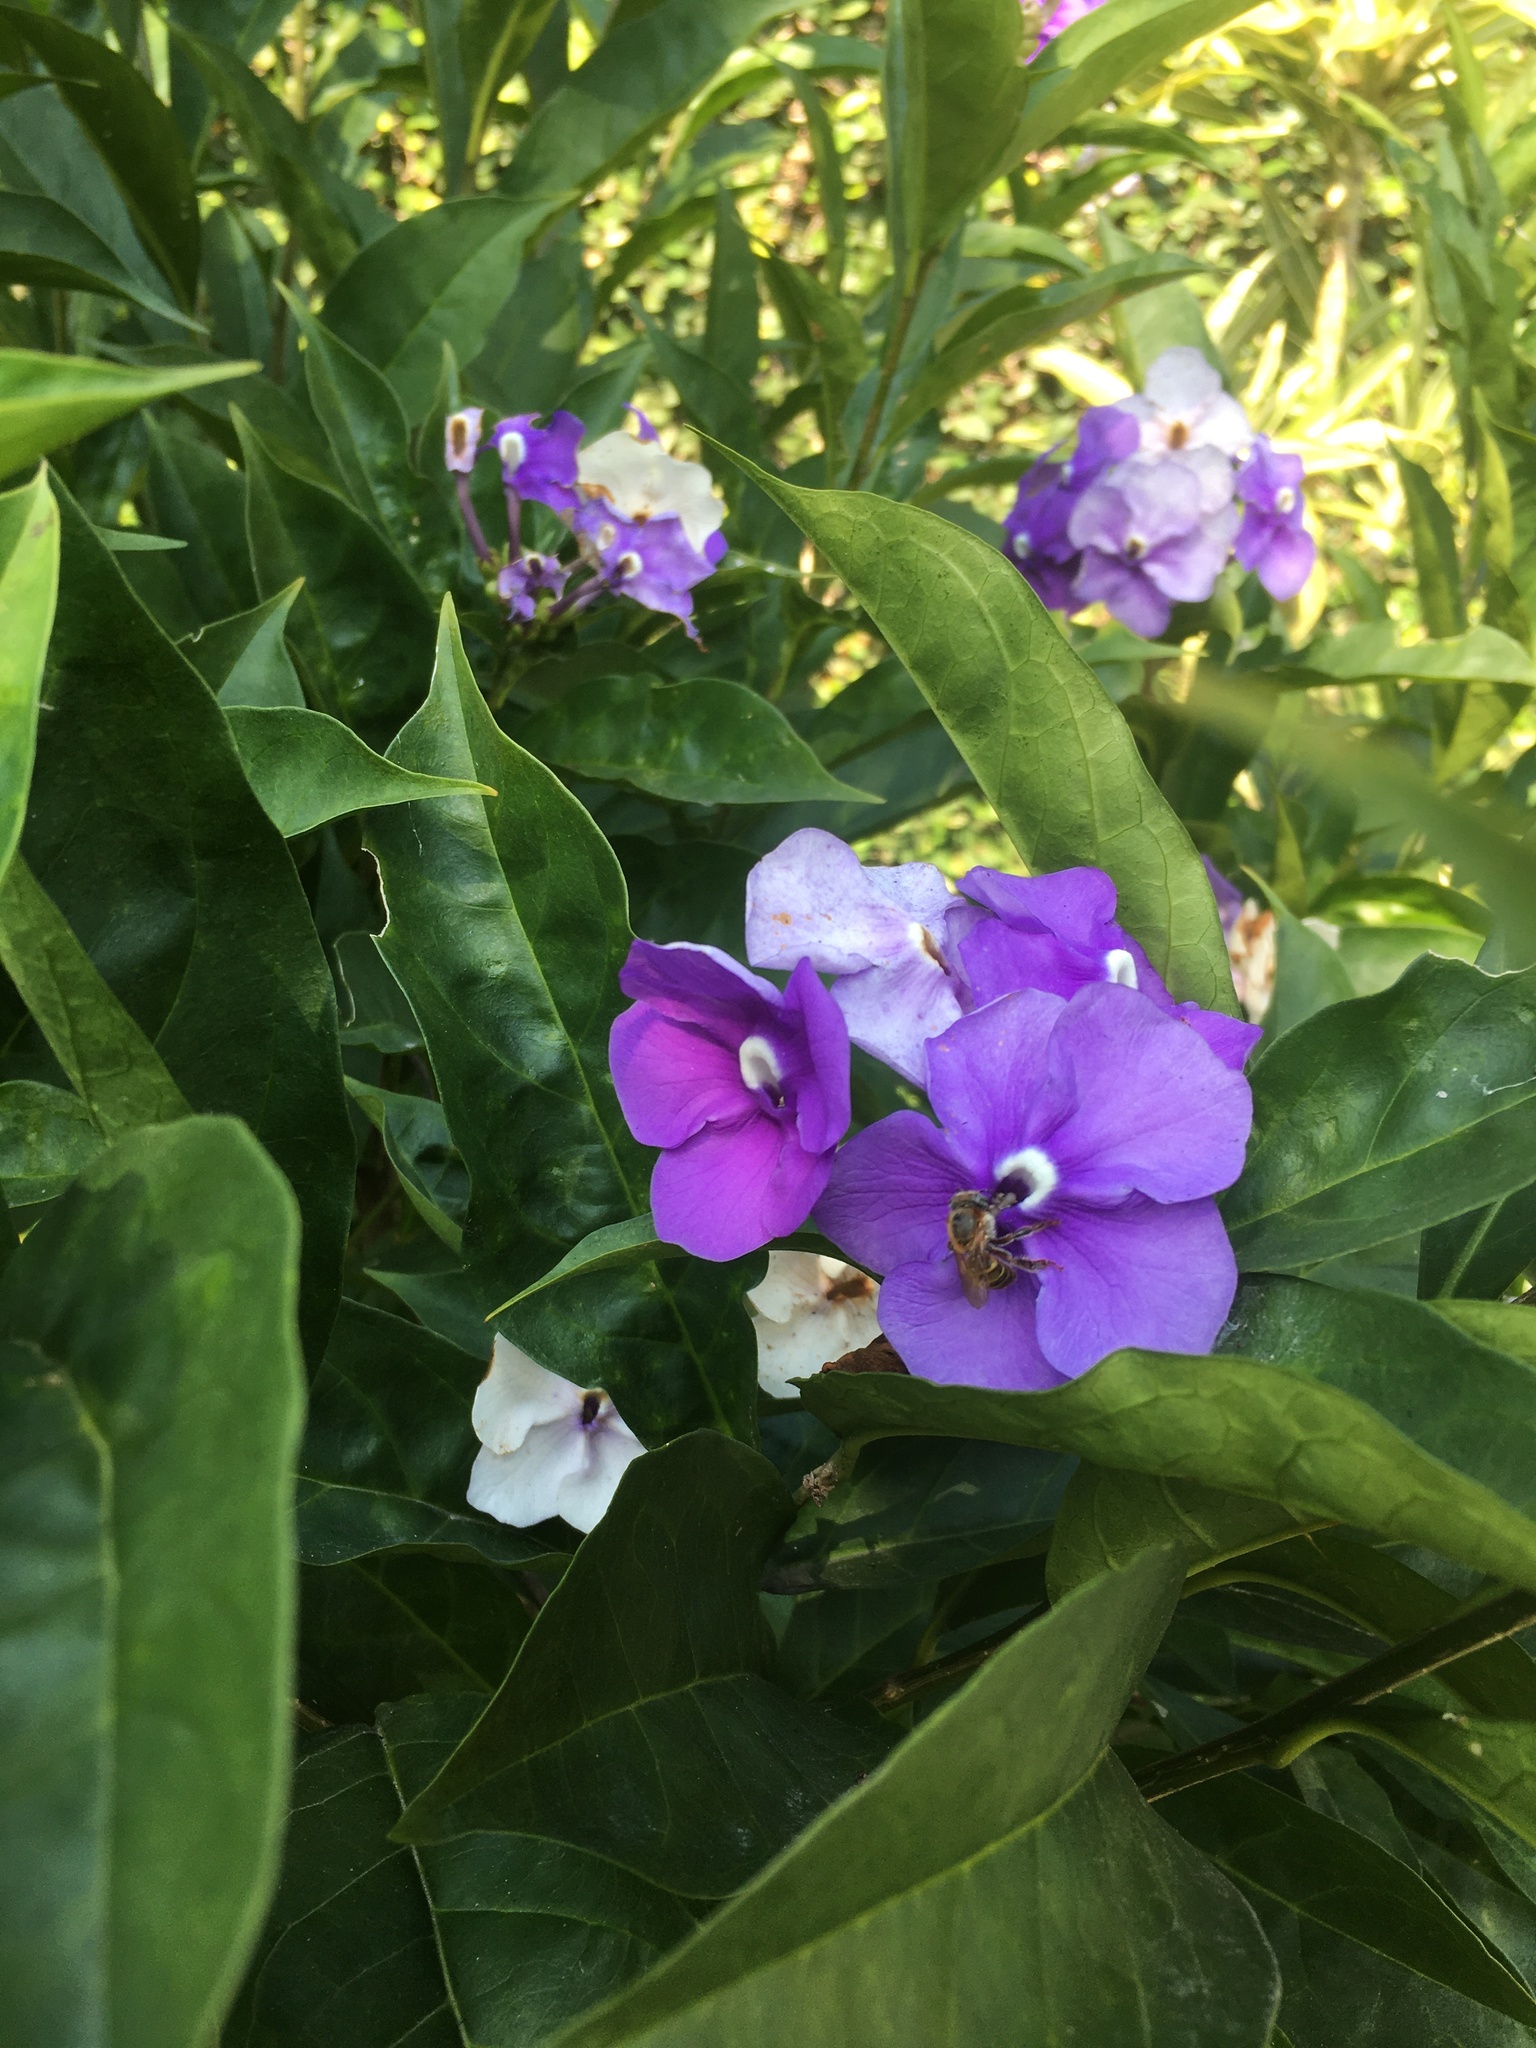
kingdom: Animalia
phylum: Arthropoda
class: Insecta
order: Hymenoptera
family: Apidae
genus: Melipona
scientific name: Melipona beecheii
